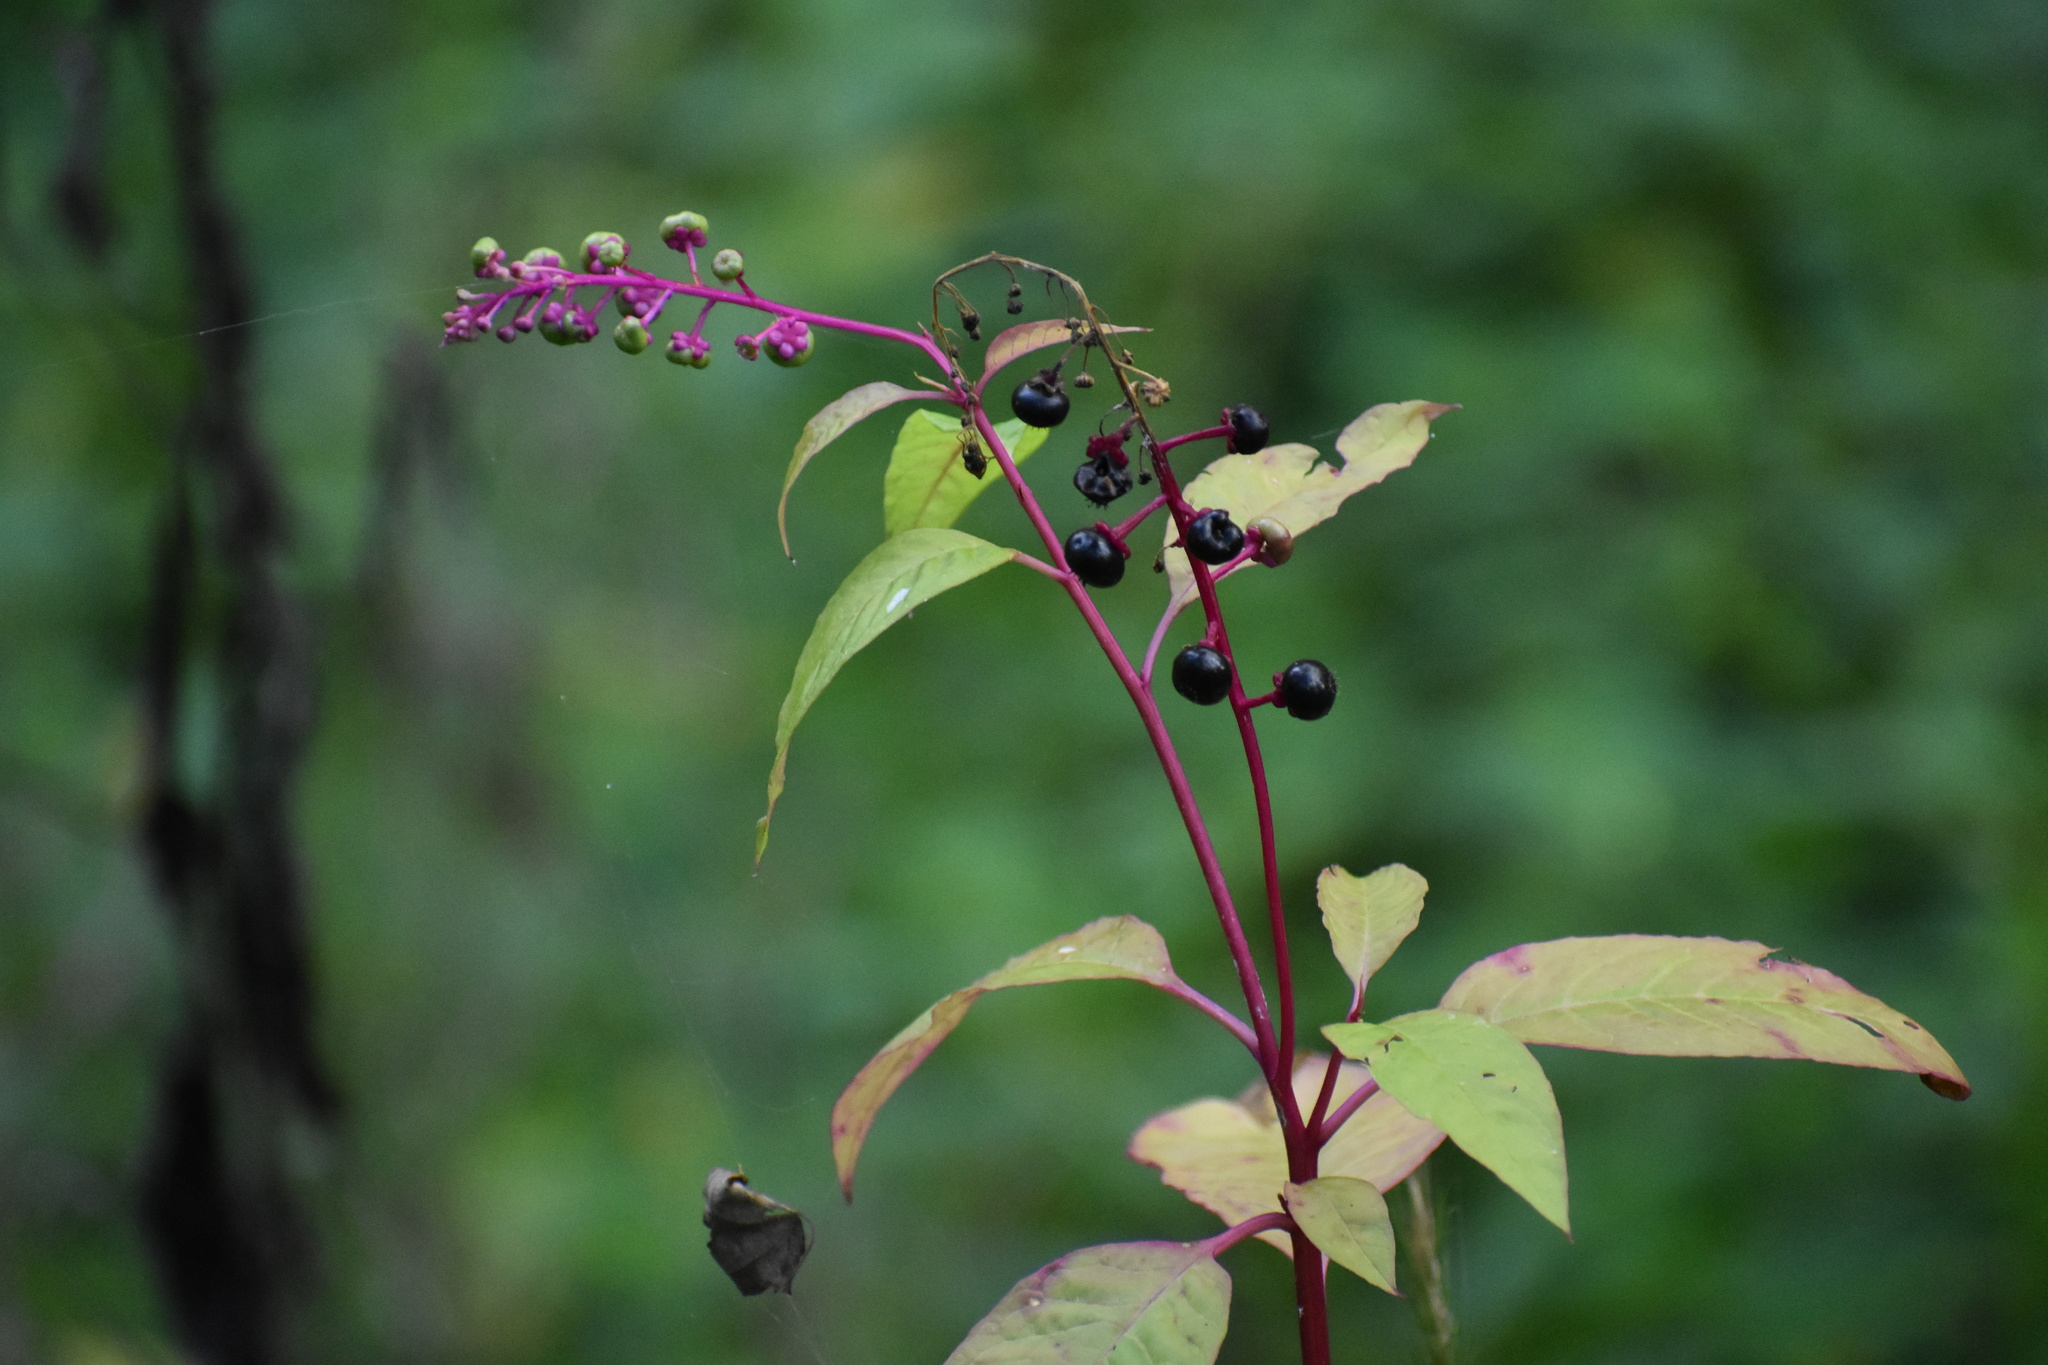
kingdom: Plantae
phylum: Tracheophyta
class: Magnoliopsida
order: Caryophyllales
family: Phytolaccaceae
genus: Phytolacca
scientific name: Phytolacca americana
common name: American pokeweed
